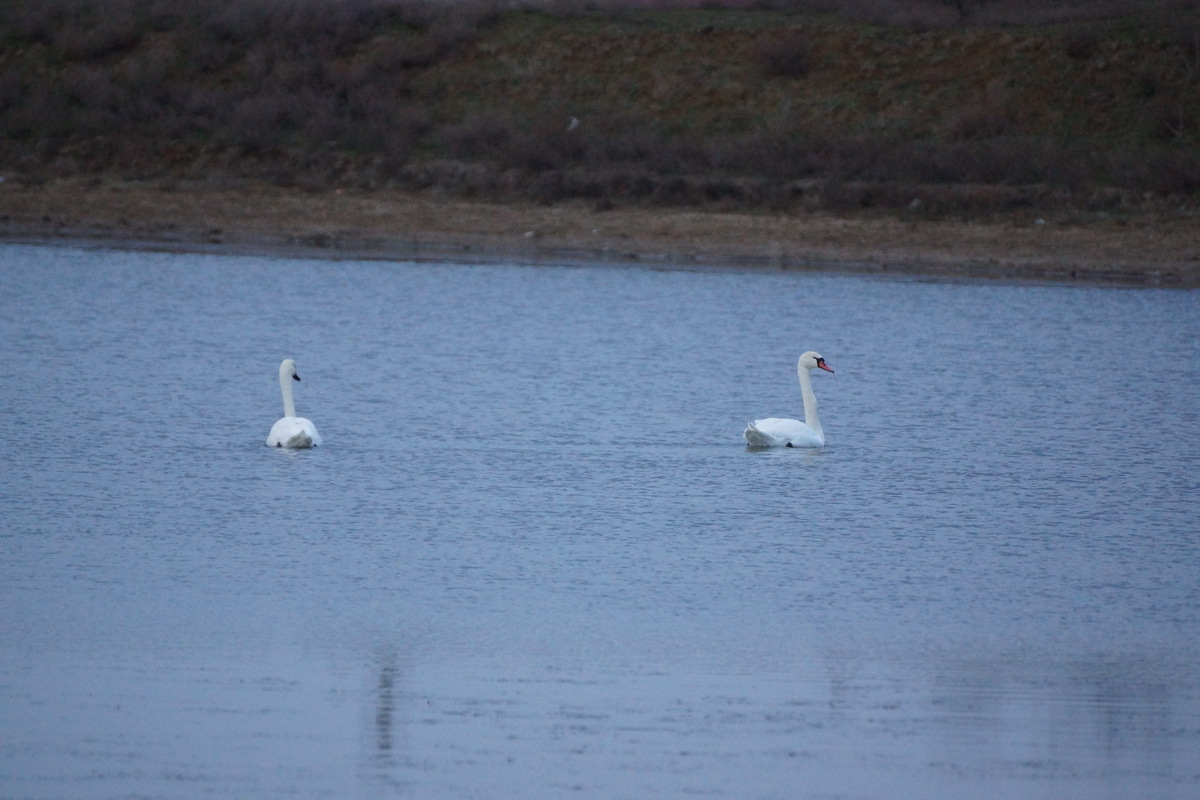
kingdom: Animalia
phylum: Chordata
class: Aves
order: Anseriformes
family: Anatidae
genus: Cygnus
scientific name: Cygnus olor
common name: Mute swan
